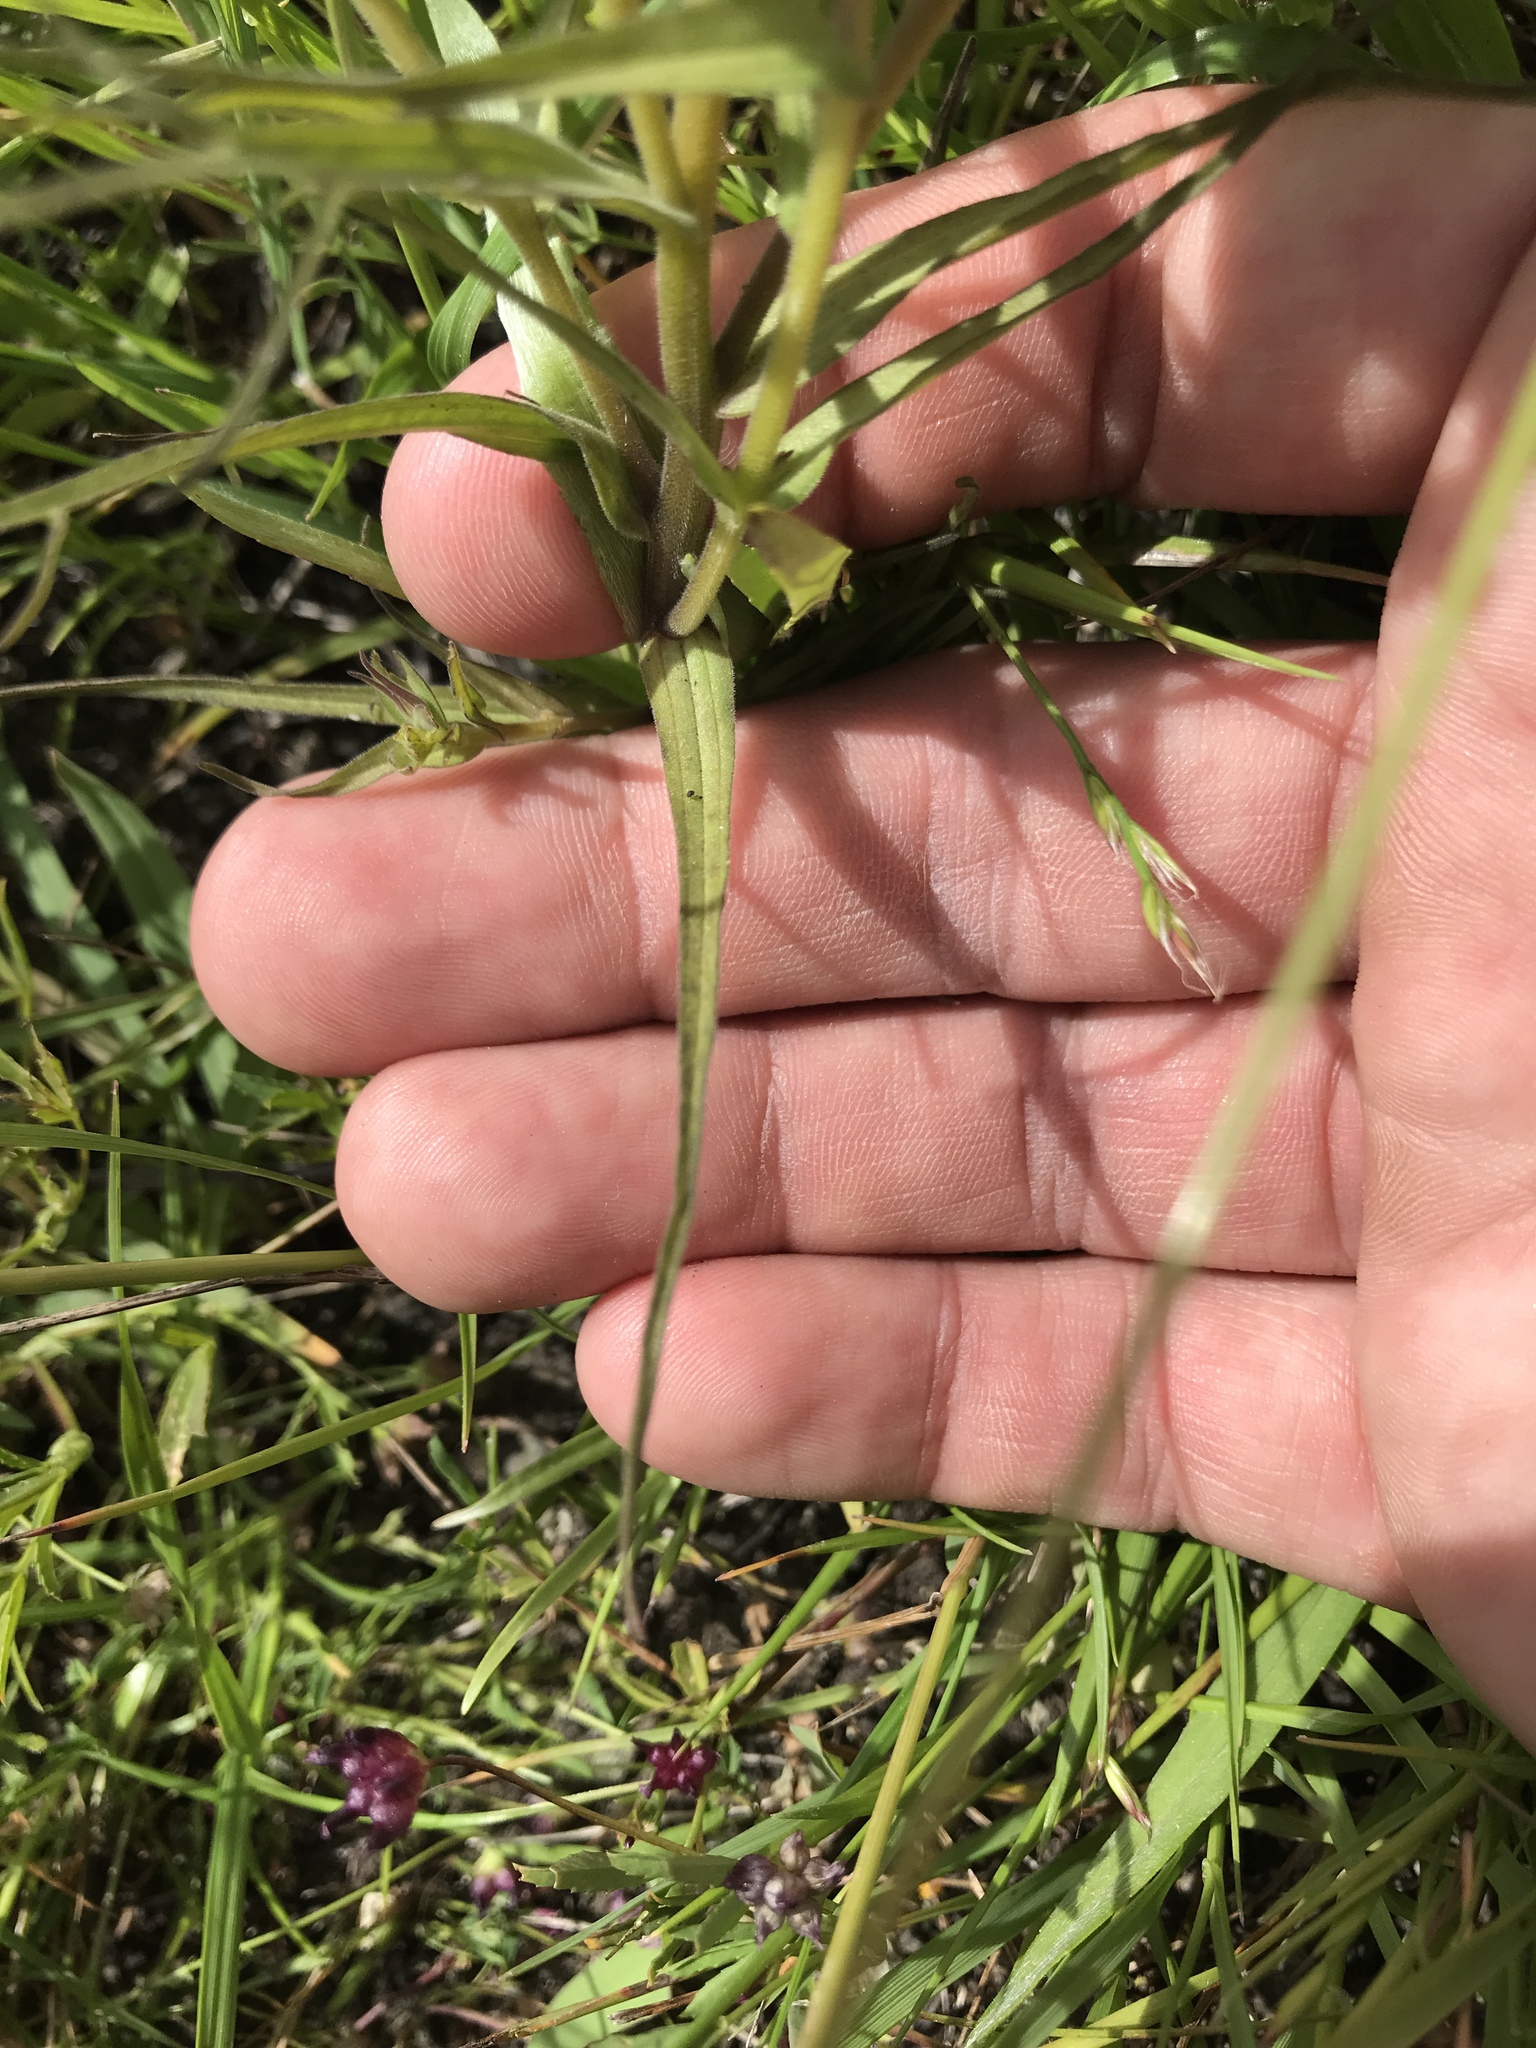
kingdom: Plantae
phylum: Tracheophyta
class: Magnoliopsida
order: Lamiales
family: Orobanchaceae
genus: Castilleja
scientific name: Castilleja densiflora
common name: Dense-flower indian paintbrush
